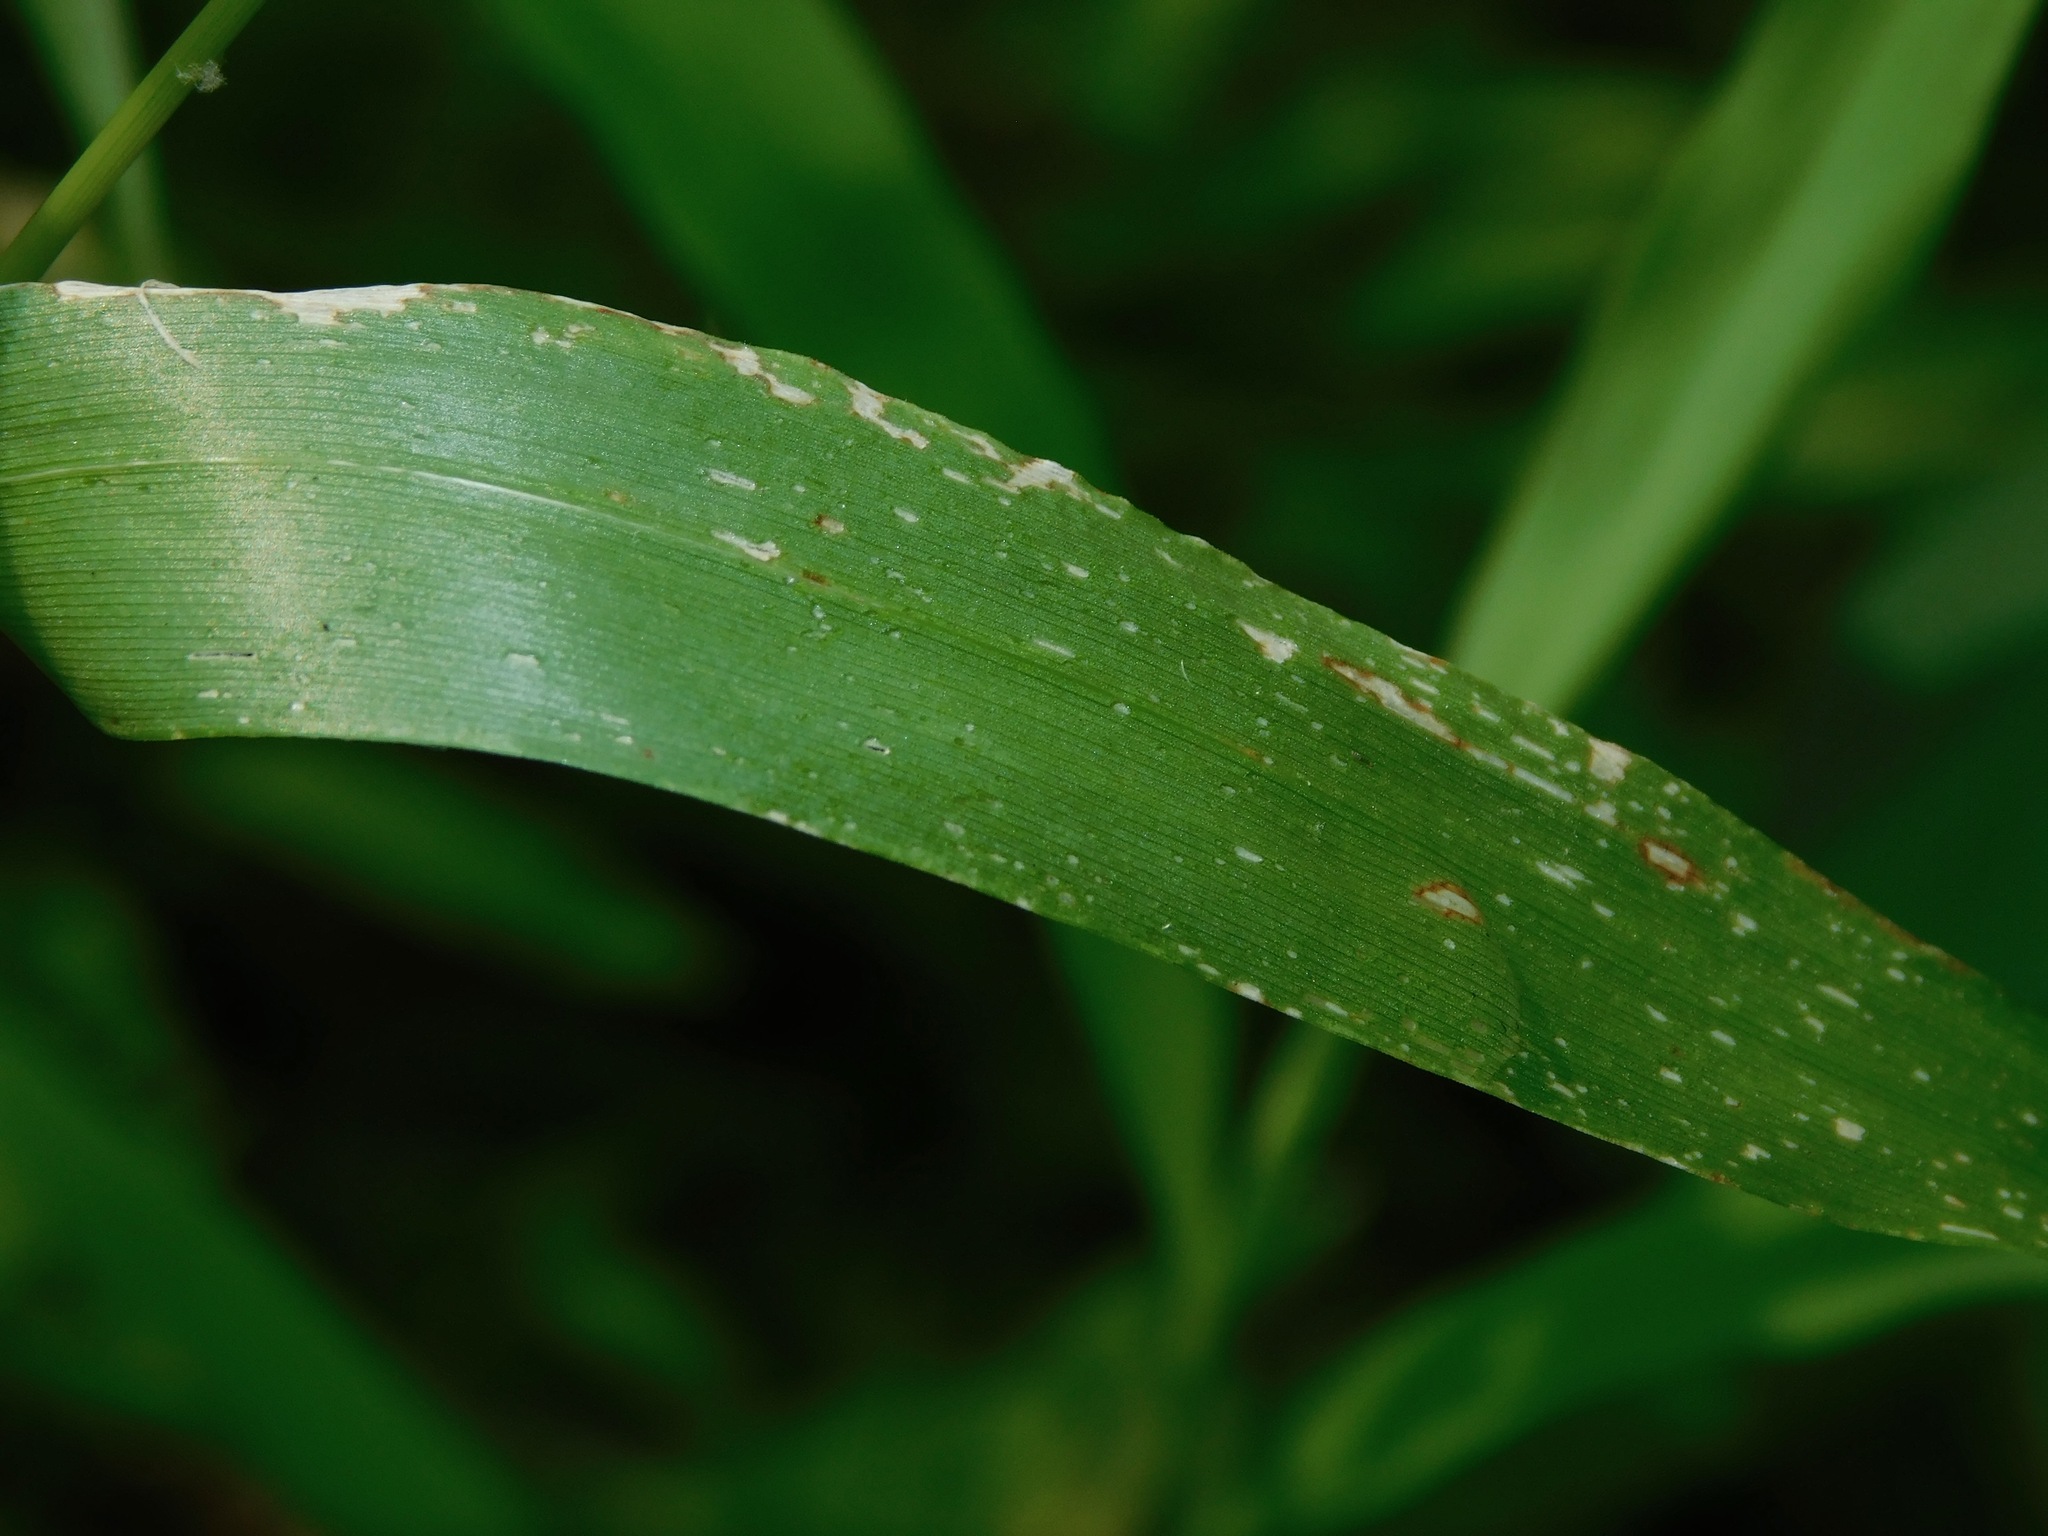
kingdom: Plantae
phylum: Tracheophyta
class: Liliopsida
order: Poales
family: Poaceae
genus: Dichanthelium
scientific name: Dichanthelium microcarpon
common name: Small-fruited witchgrass
